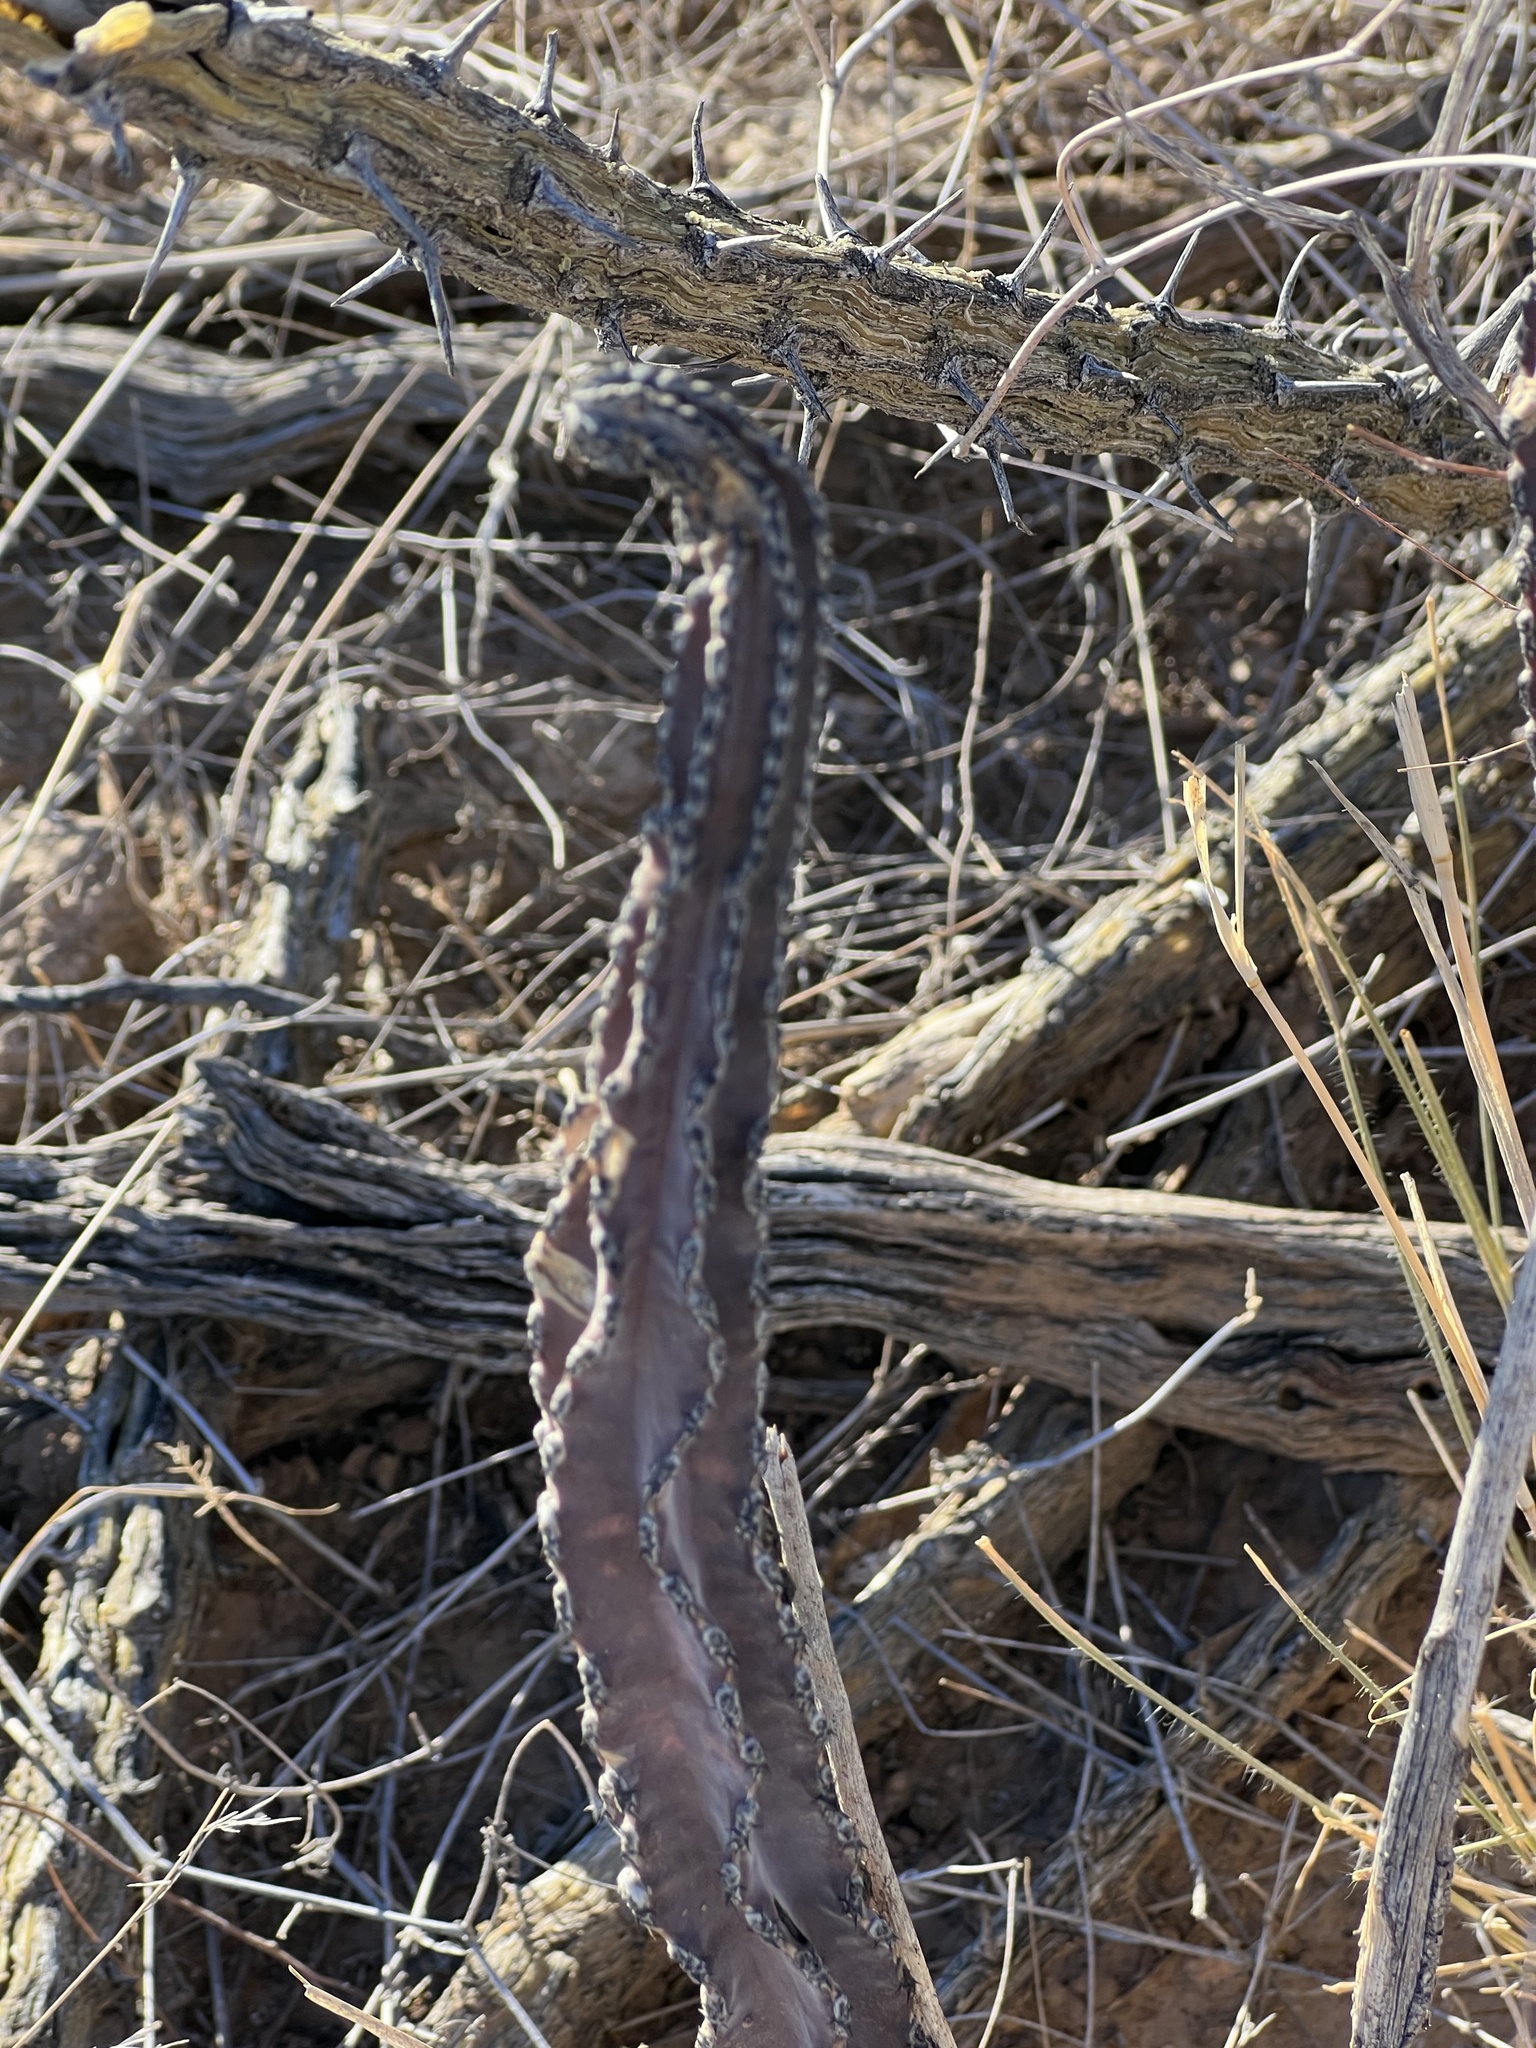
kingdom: Plantae
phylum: Tracheophyta
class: Magnoliopsida
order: Caryophyllales
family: Cactaceae
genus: Peniocereus
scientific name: Peniocereus greggii
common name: Desert night-blooming cereus
